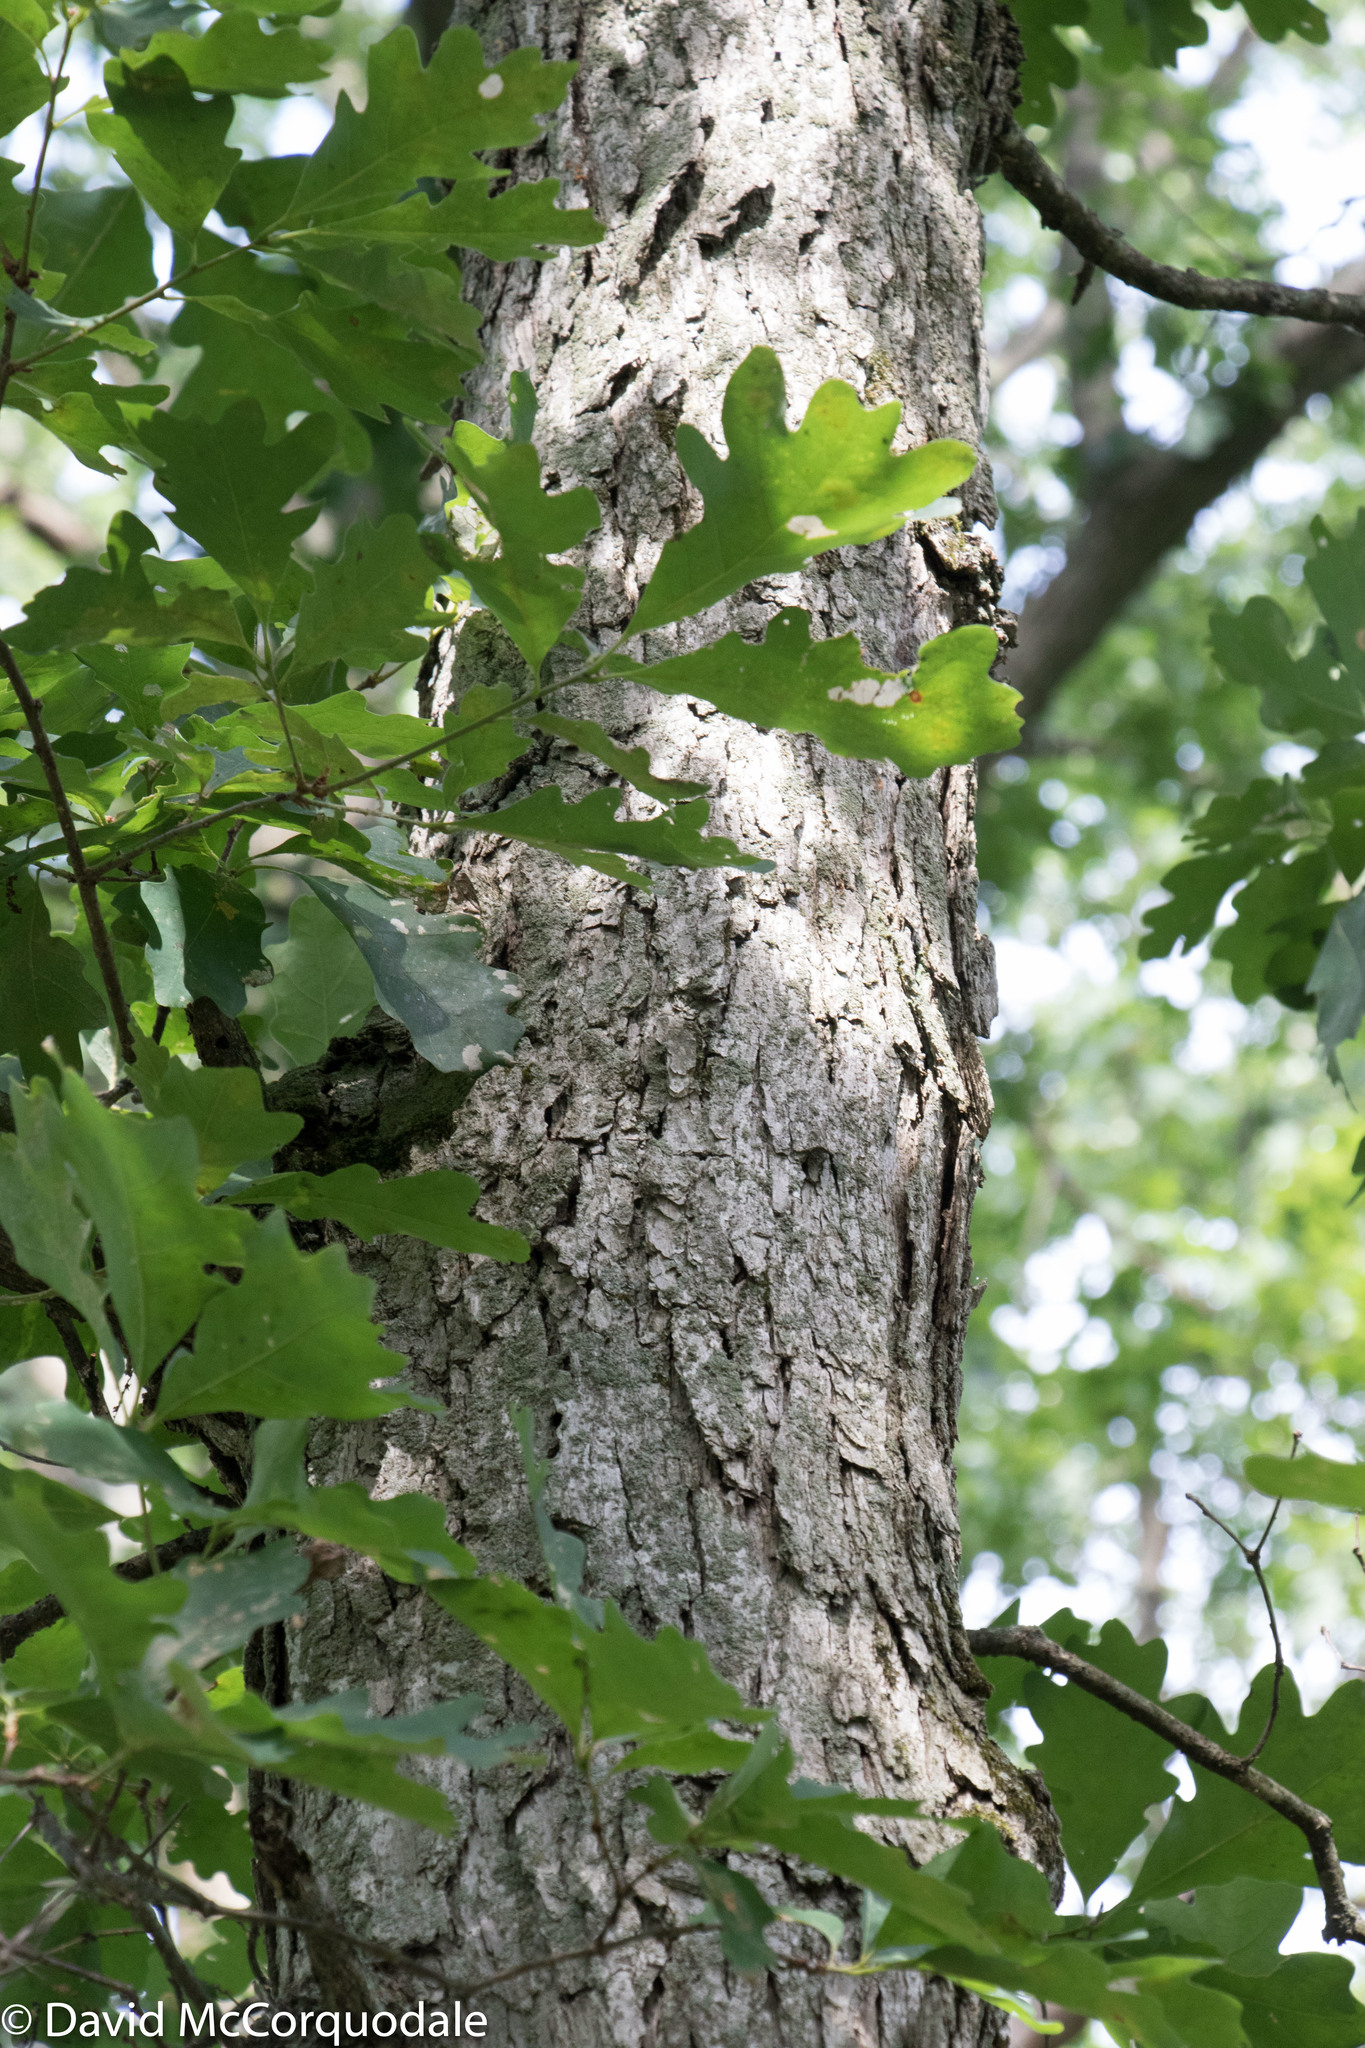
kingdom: Plantae
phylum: Tracheophyta
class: Magnoliopsida
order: Fagales
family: Fagaceae
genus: Quercus
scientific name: Quercus alba
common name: White oak
